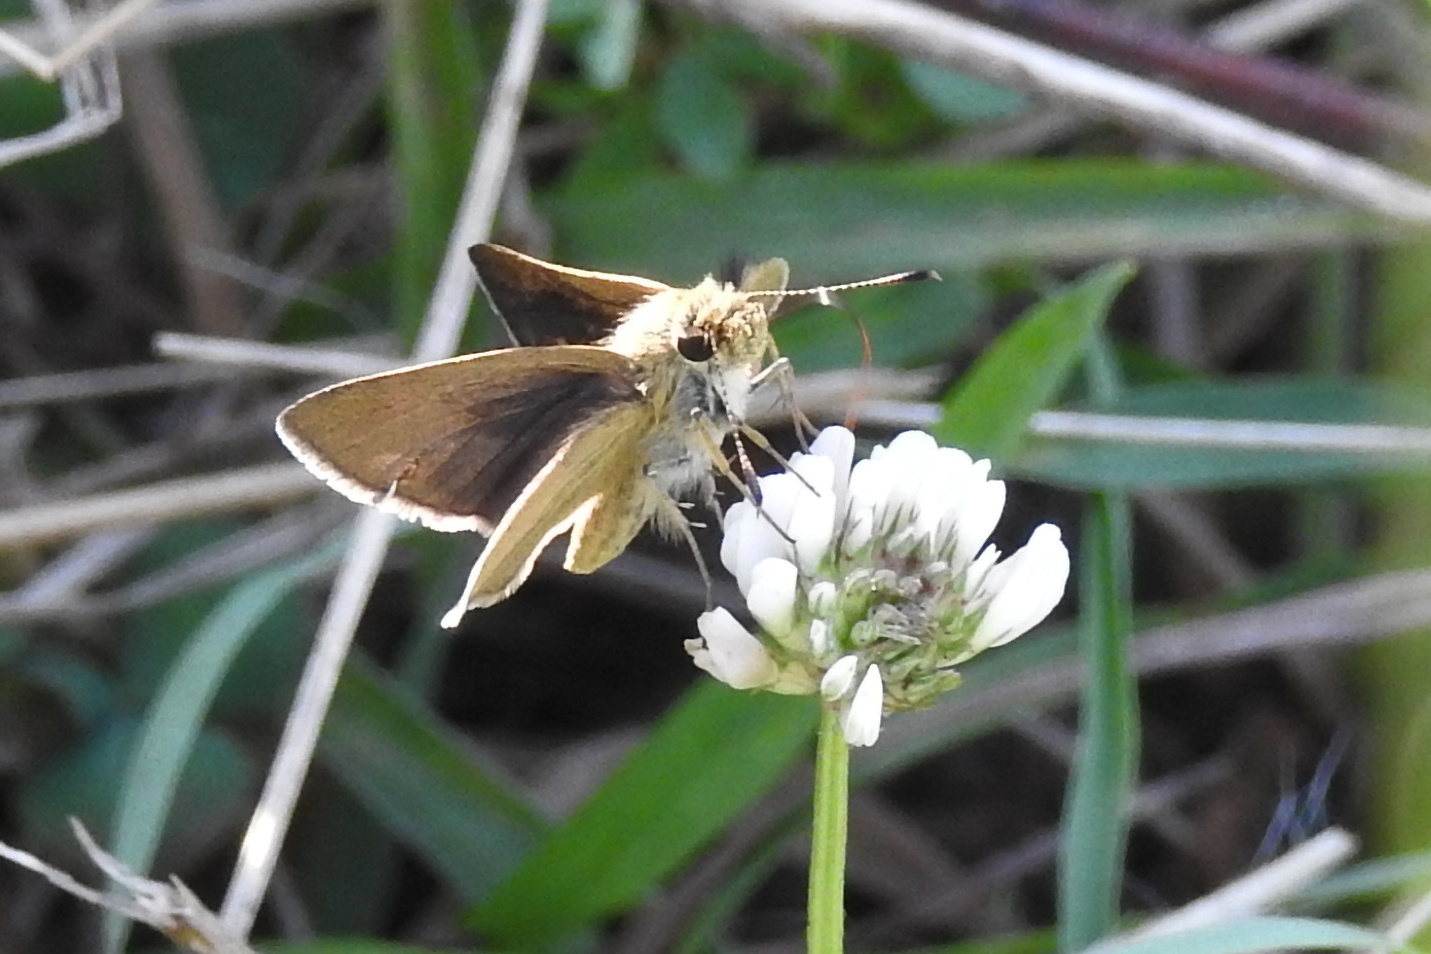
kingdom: Animalia
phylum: Arthropoda
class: Insecta
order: Lepidoptera
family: Hesperiidae
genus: Nastra
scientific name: Nastra lherminier
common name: Swarthy skipper
